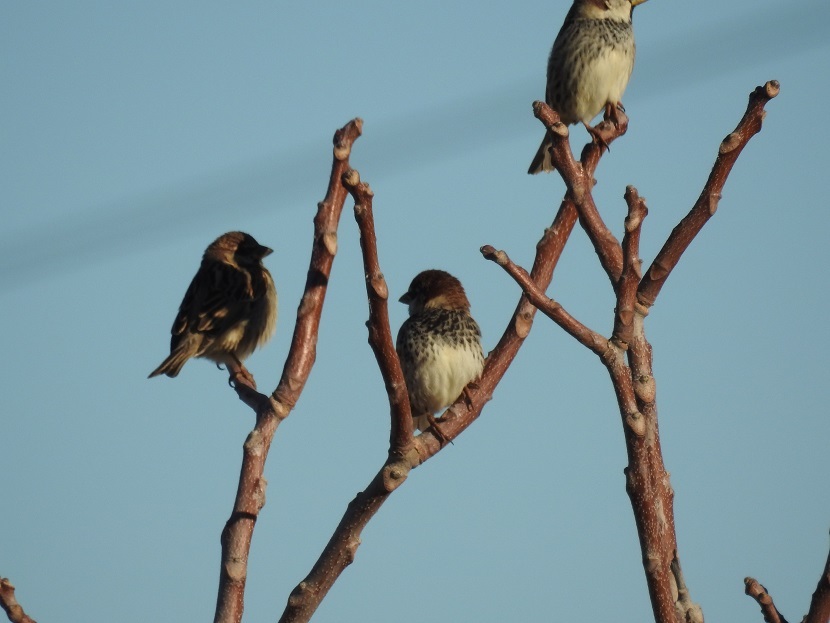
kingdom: Animalia
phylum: Chordata
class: Aves
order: Passeriformes
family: Passeridae
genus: Passer
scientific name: Passer hispaniolensis
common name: Spanish sparrow
